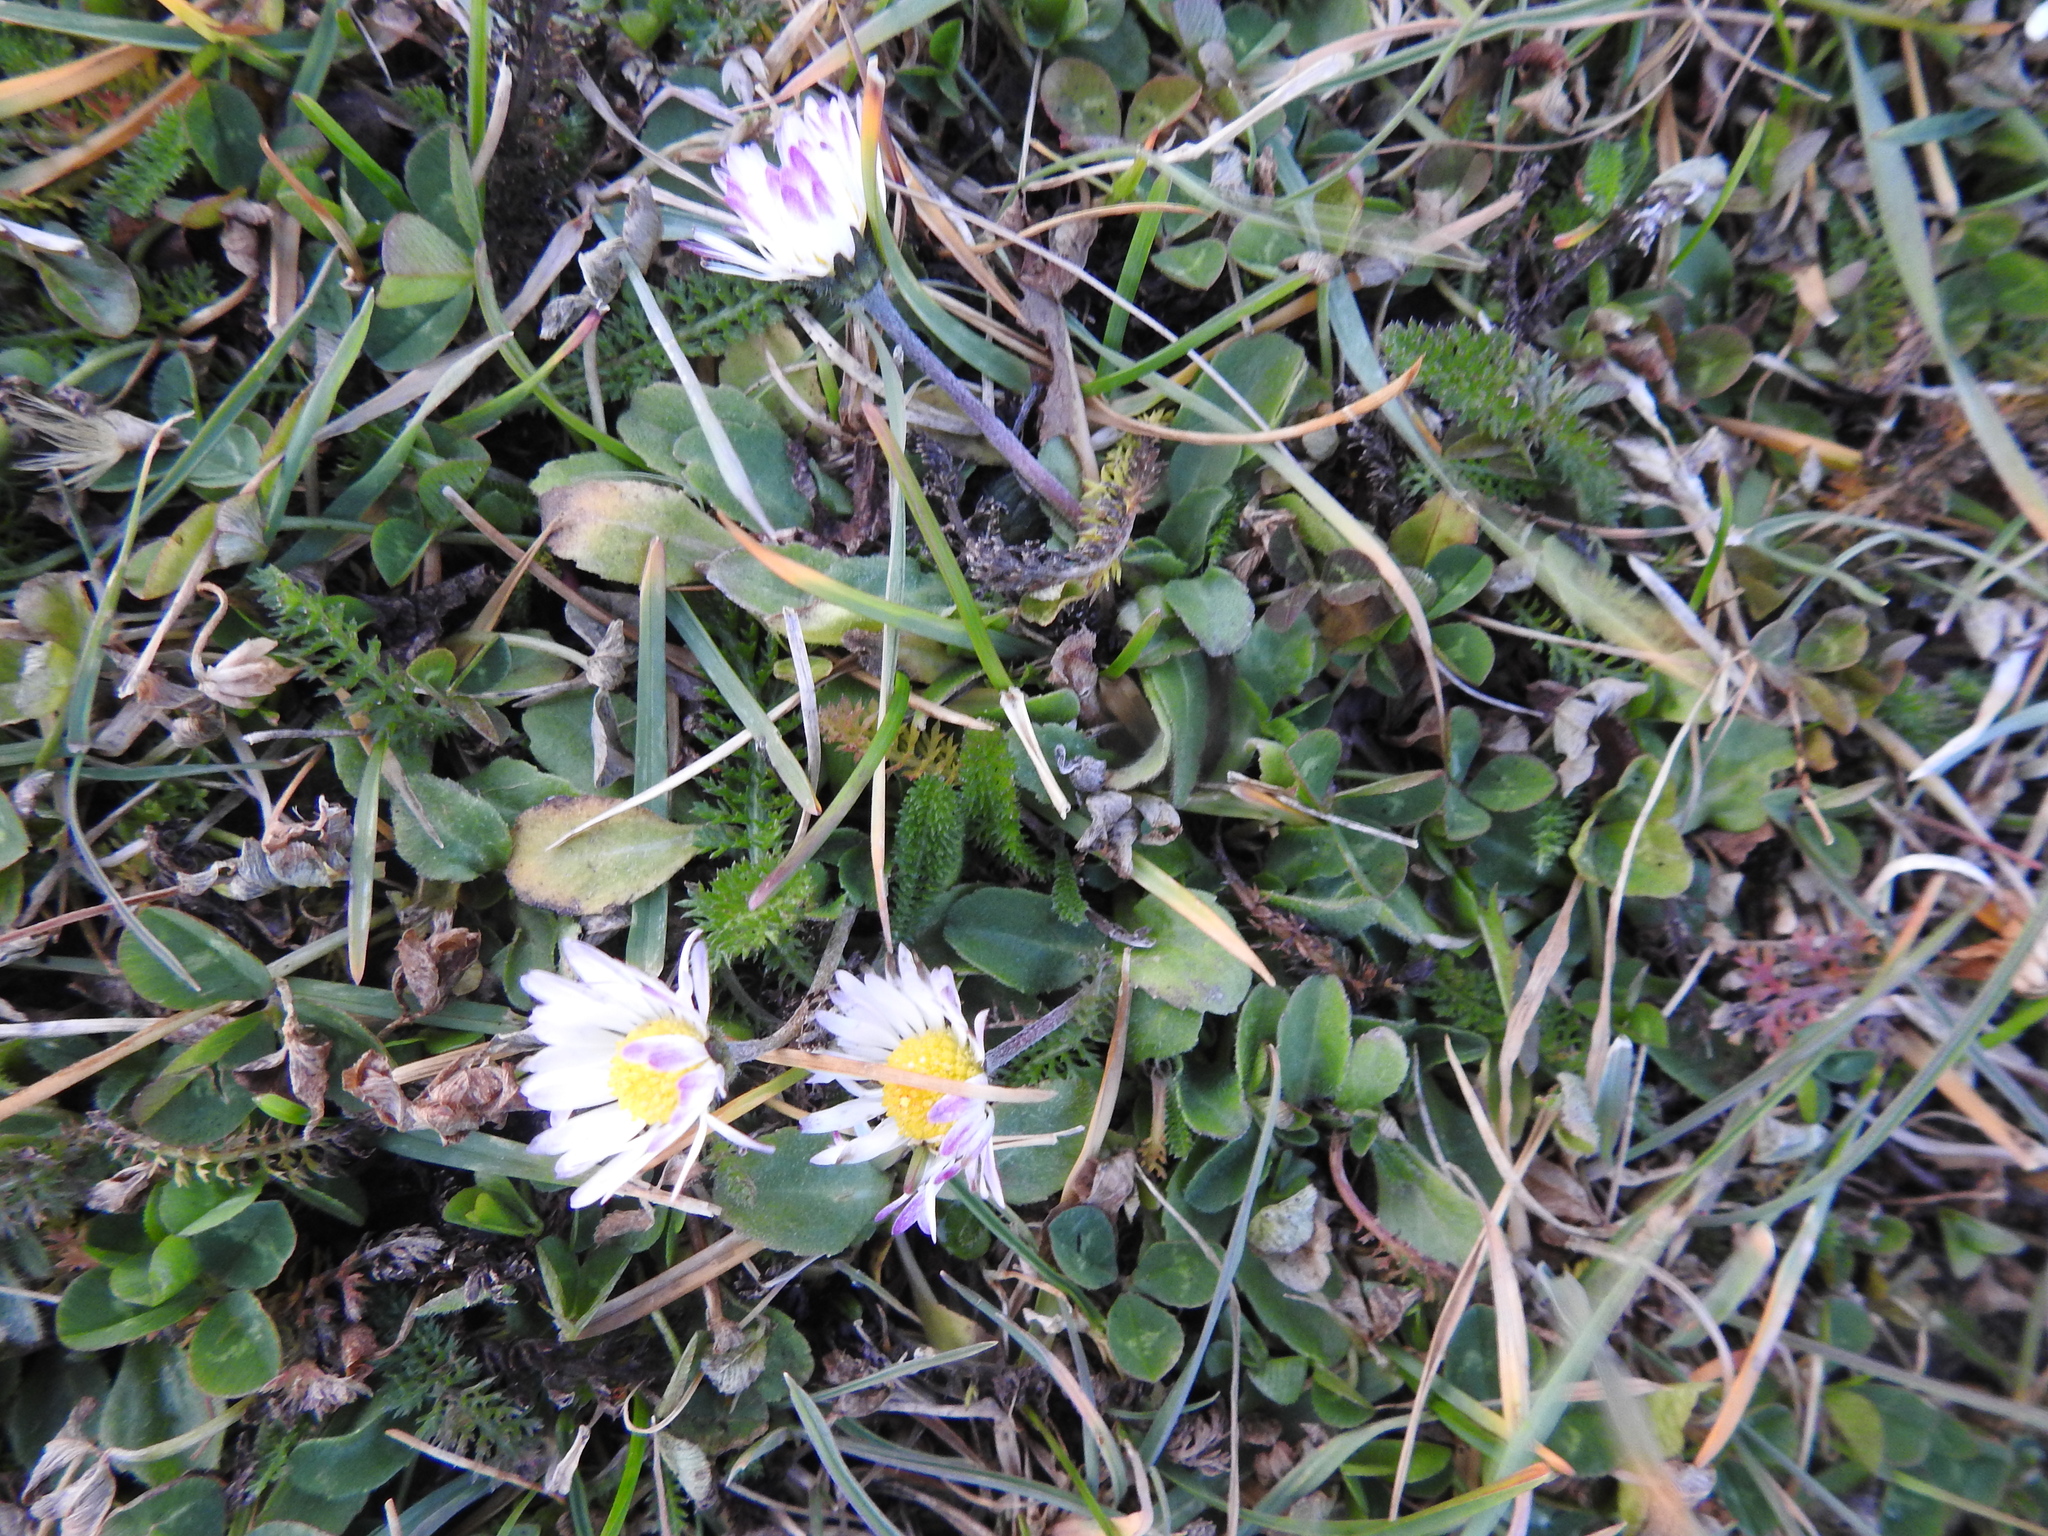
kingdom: Plantae
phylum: Tracheophyta
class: Magnoliopsida
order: Asterales
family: Asteraceae
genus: Bellis
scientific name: Bellis perennis
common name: Lawndaisy
